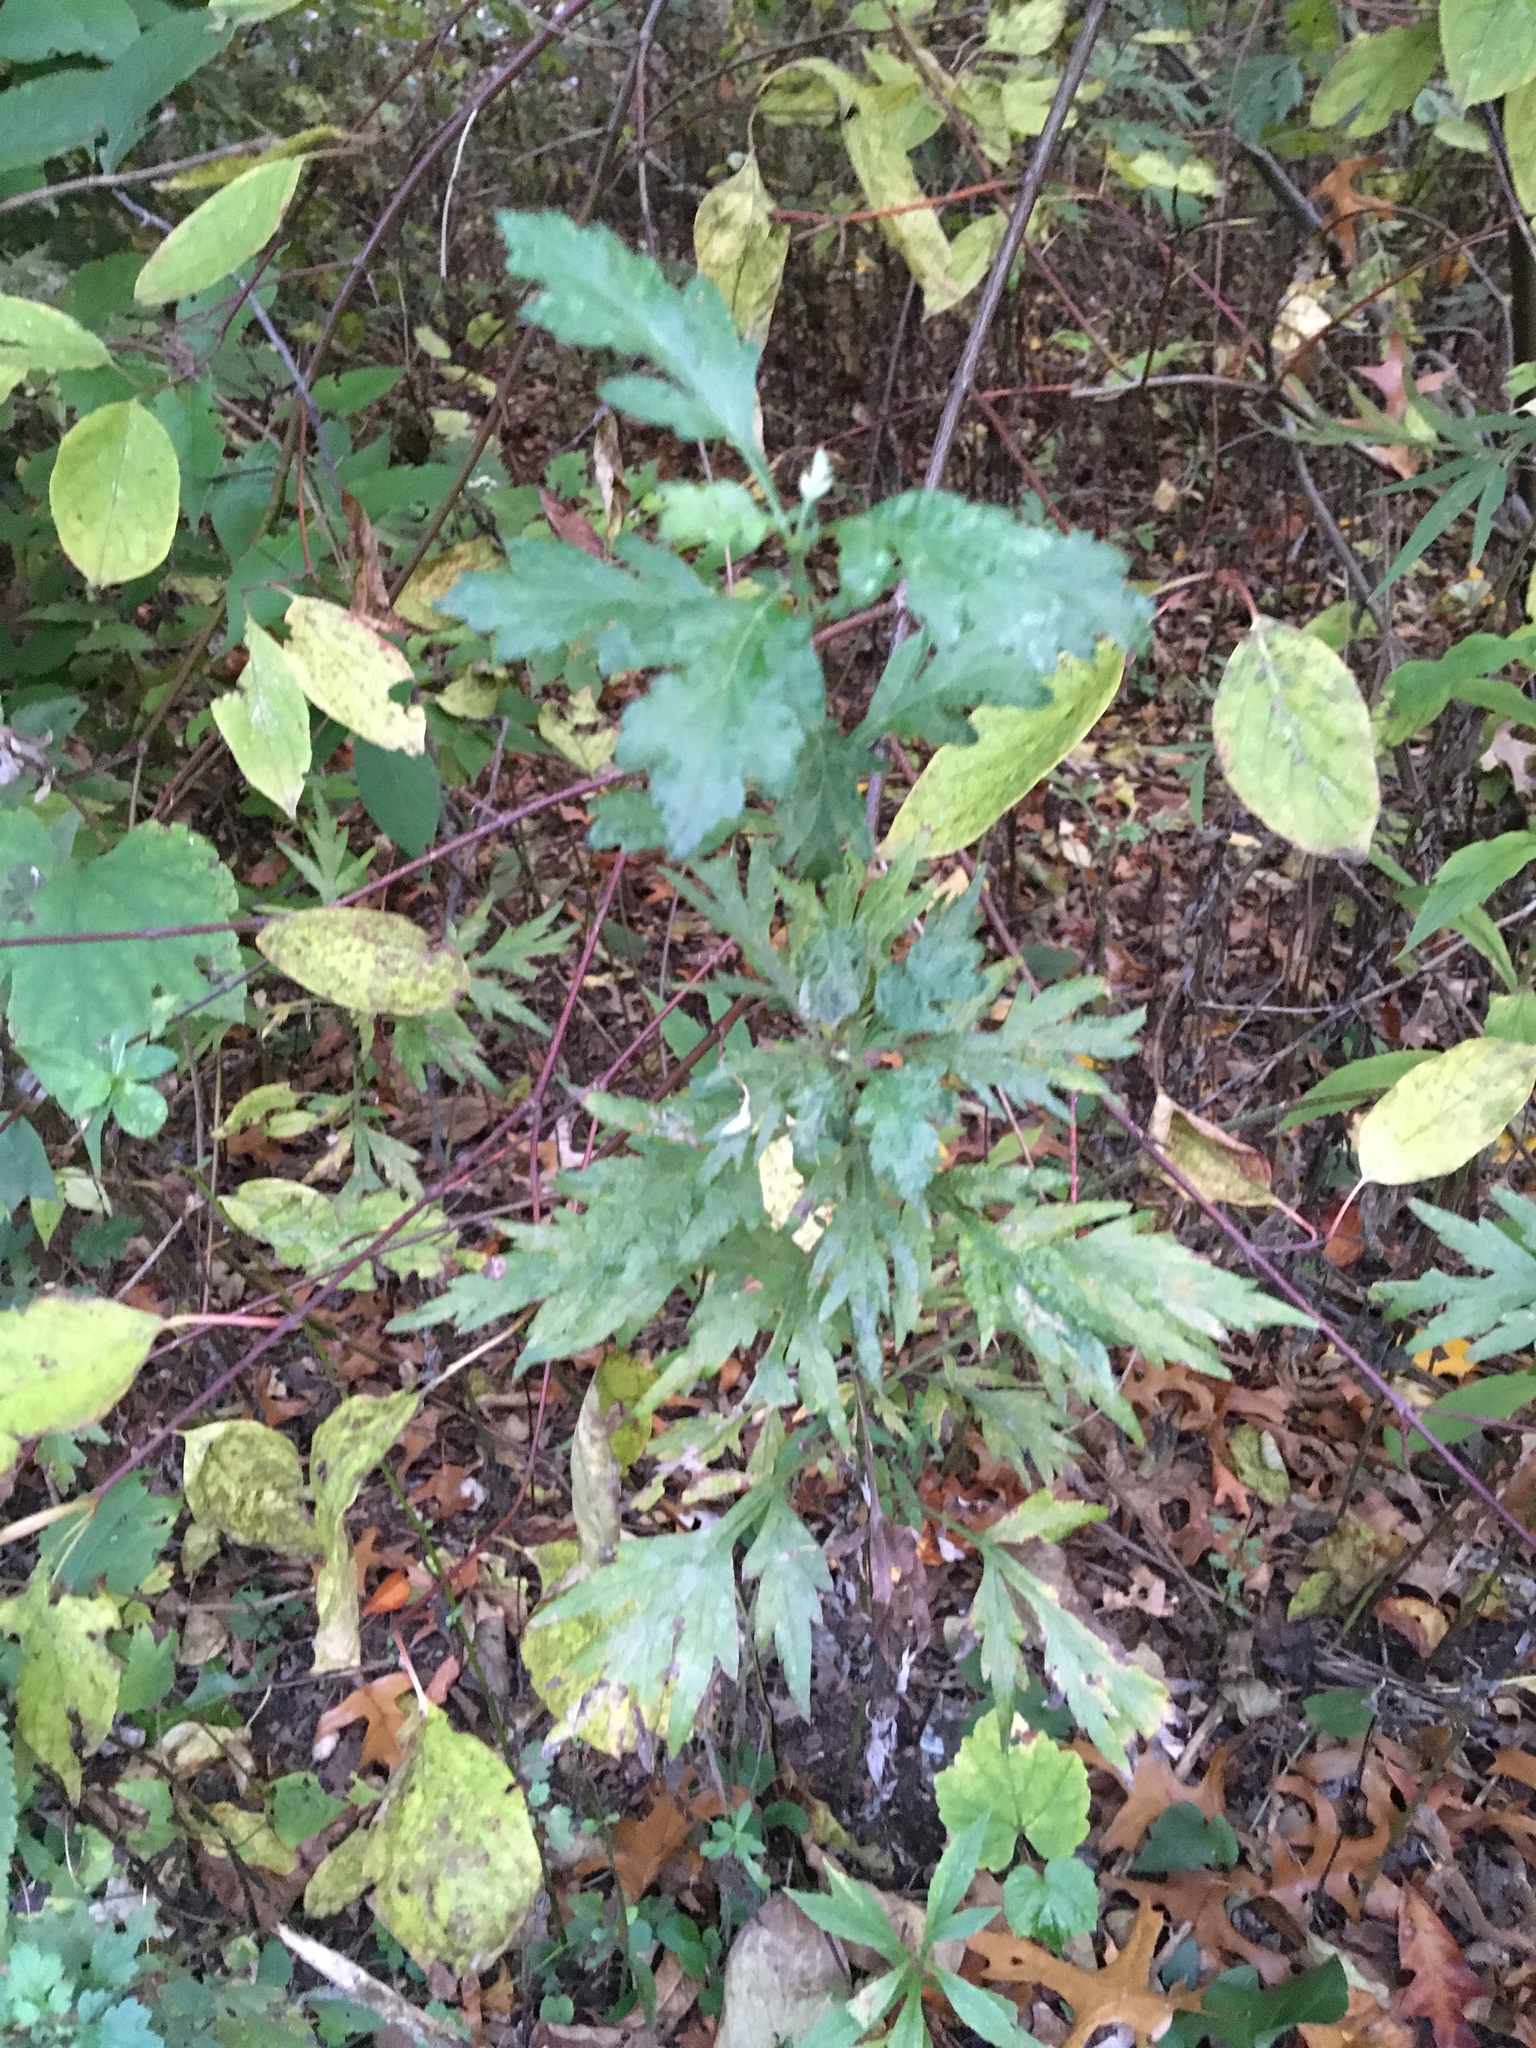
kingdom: Plantae
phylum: Tracheophyta
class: Magnoliopsida
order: Asterales
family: Asteraceae
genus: Artemisia
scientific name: Artemisia vulgaris
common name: Mugwort
